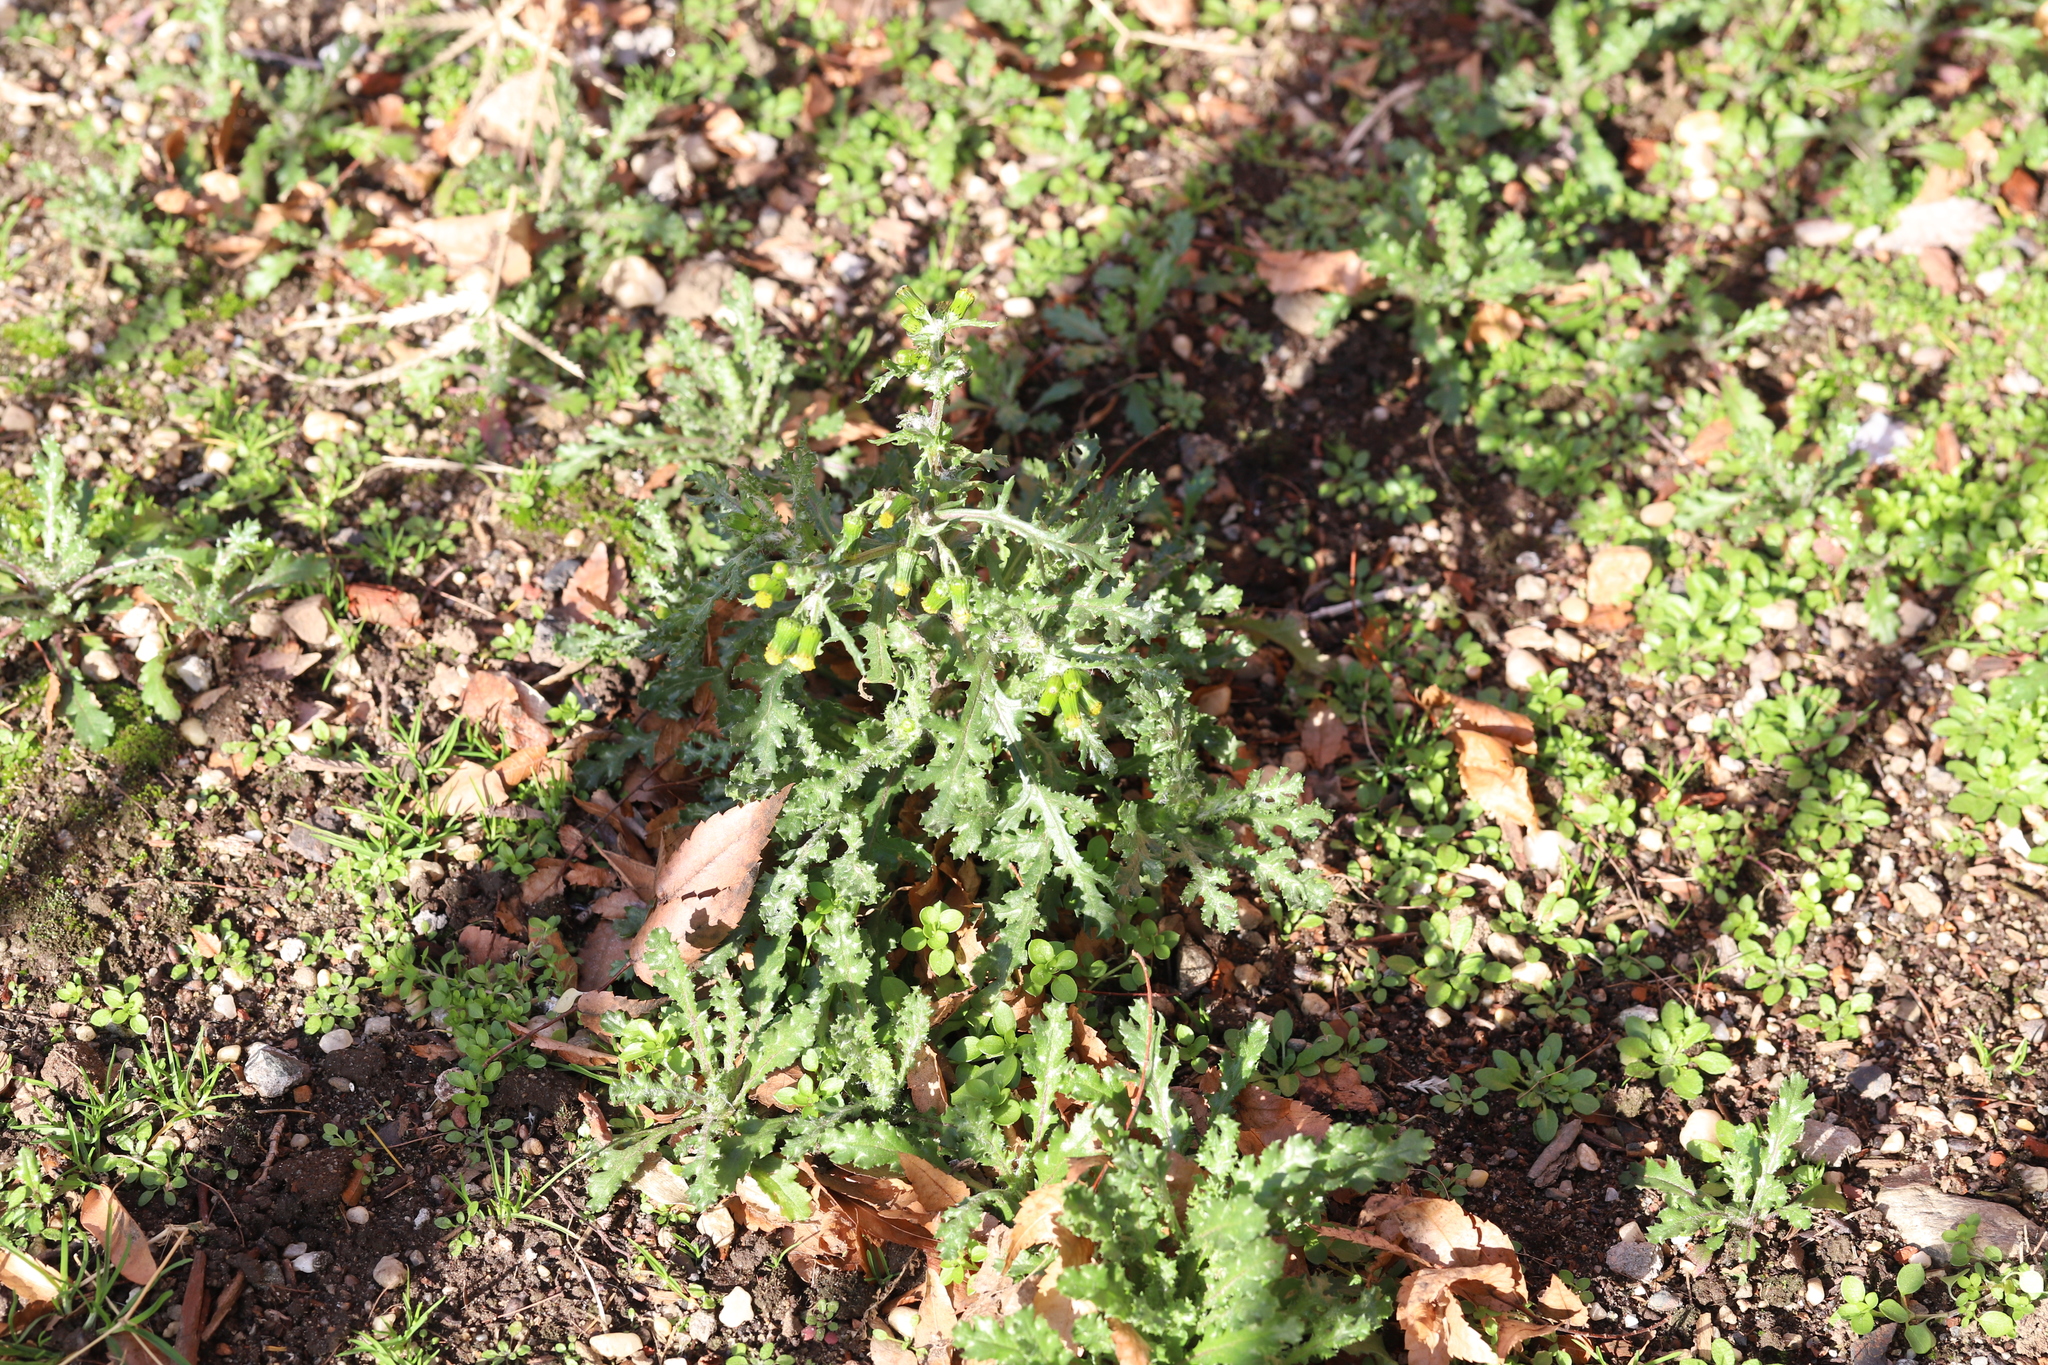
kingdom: Plantae
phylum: Tracheophyta
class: Magnoliopsida
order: Asterales
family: Asteraceae
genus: Senecio
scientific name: Senecio vulgaris
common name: Old-man-in-the-spring
